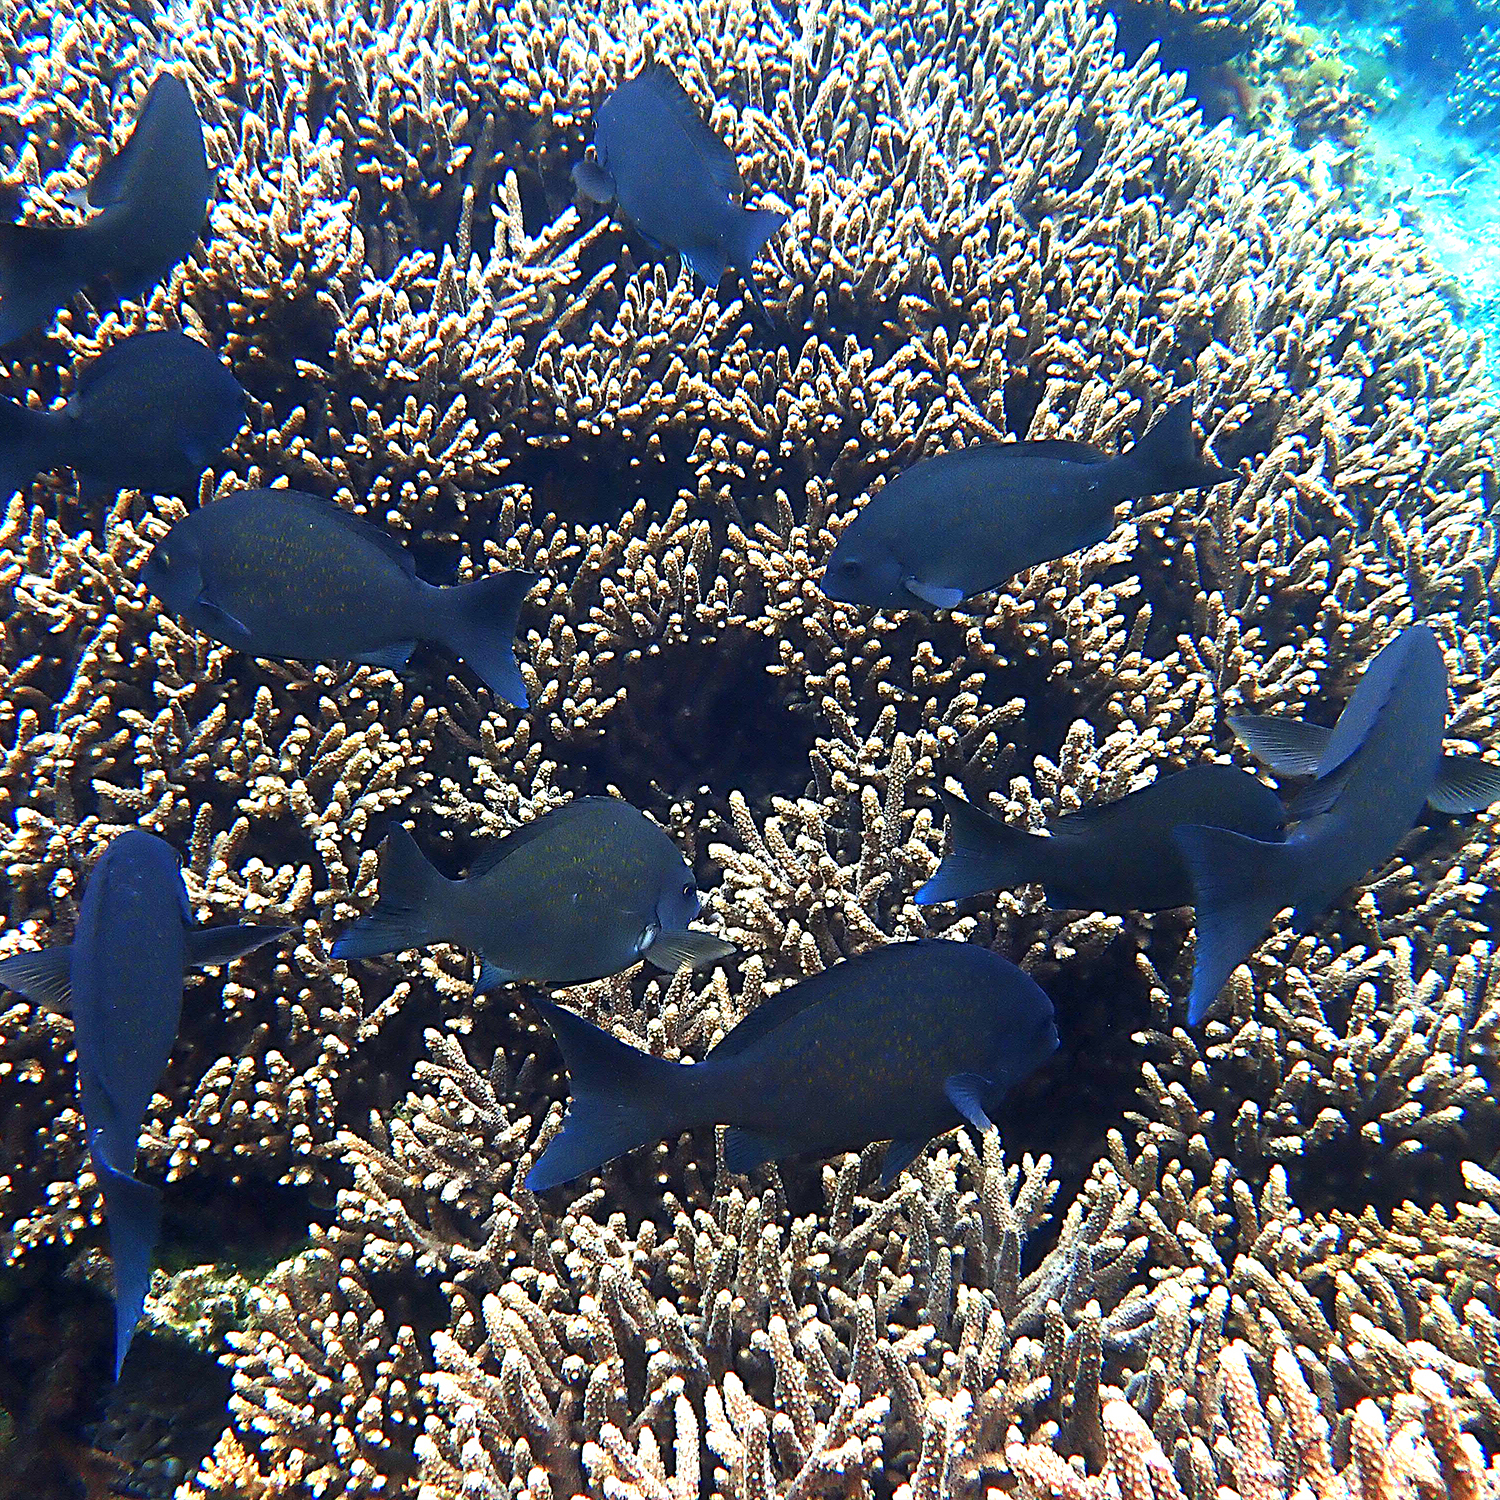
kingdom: Animalia
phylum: Chordata
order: Perciformes
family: Kyphosidae
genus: Girella
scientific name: Girella cyanea
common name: Bluefish
